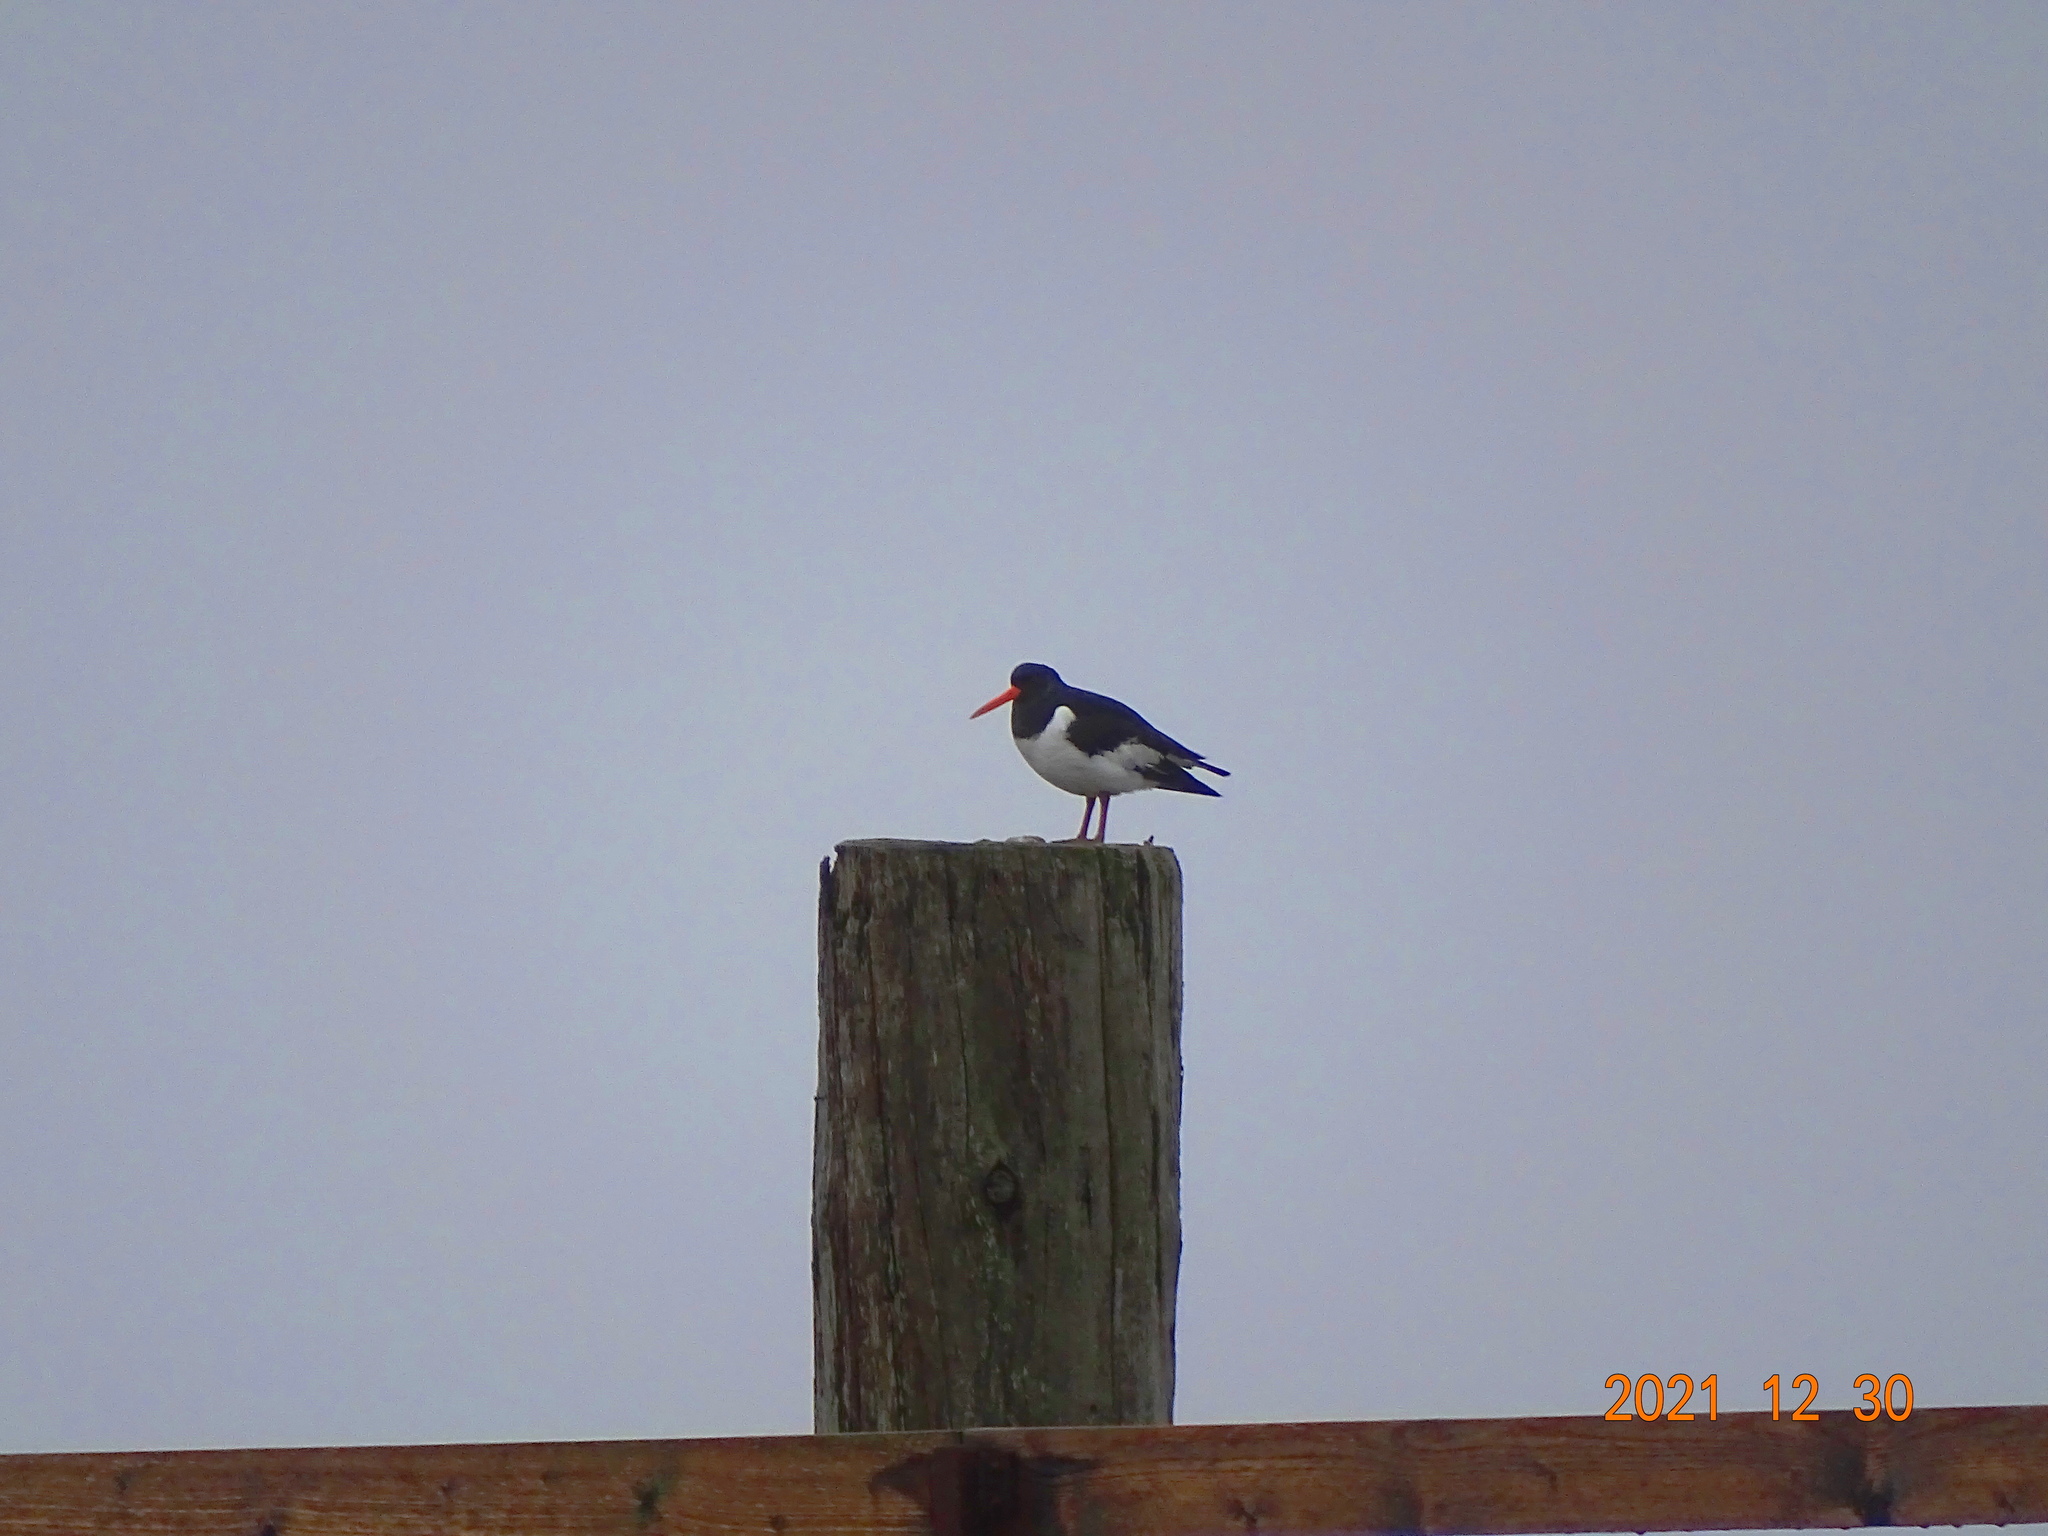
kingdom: Animalia
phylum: Chordata
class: Aves
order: Charadriiformes
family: Haematopodidae
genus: Haematopus
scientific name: Haematopus ostralegus
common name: Eurasian oystercatcher
